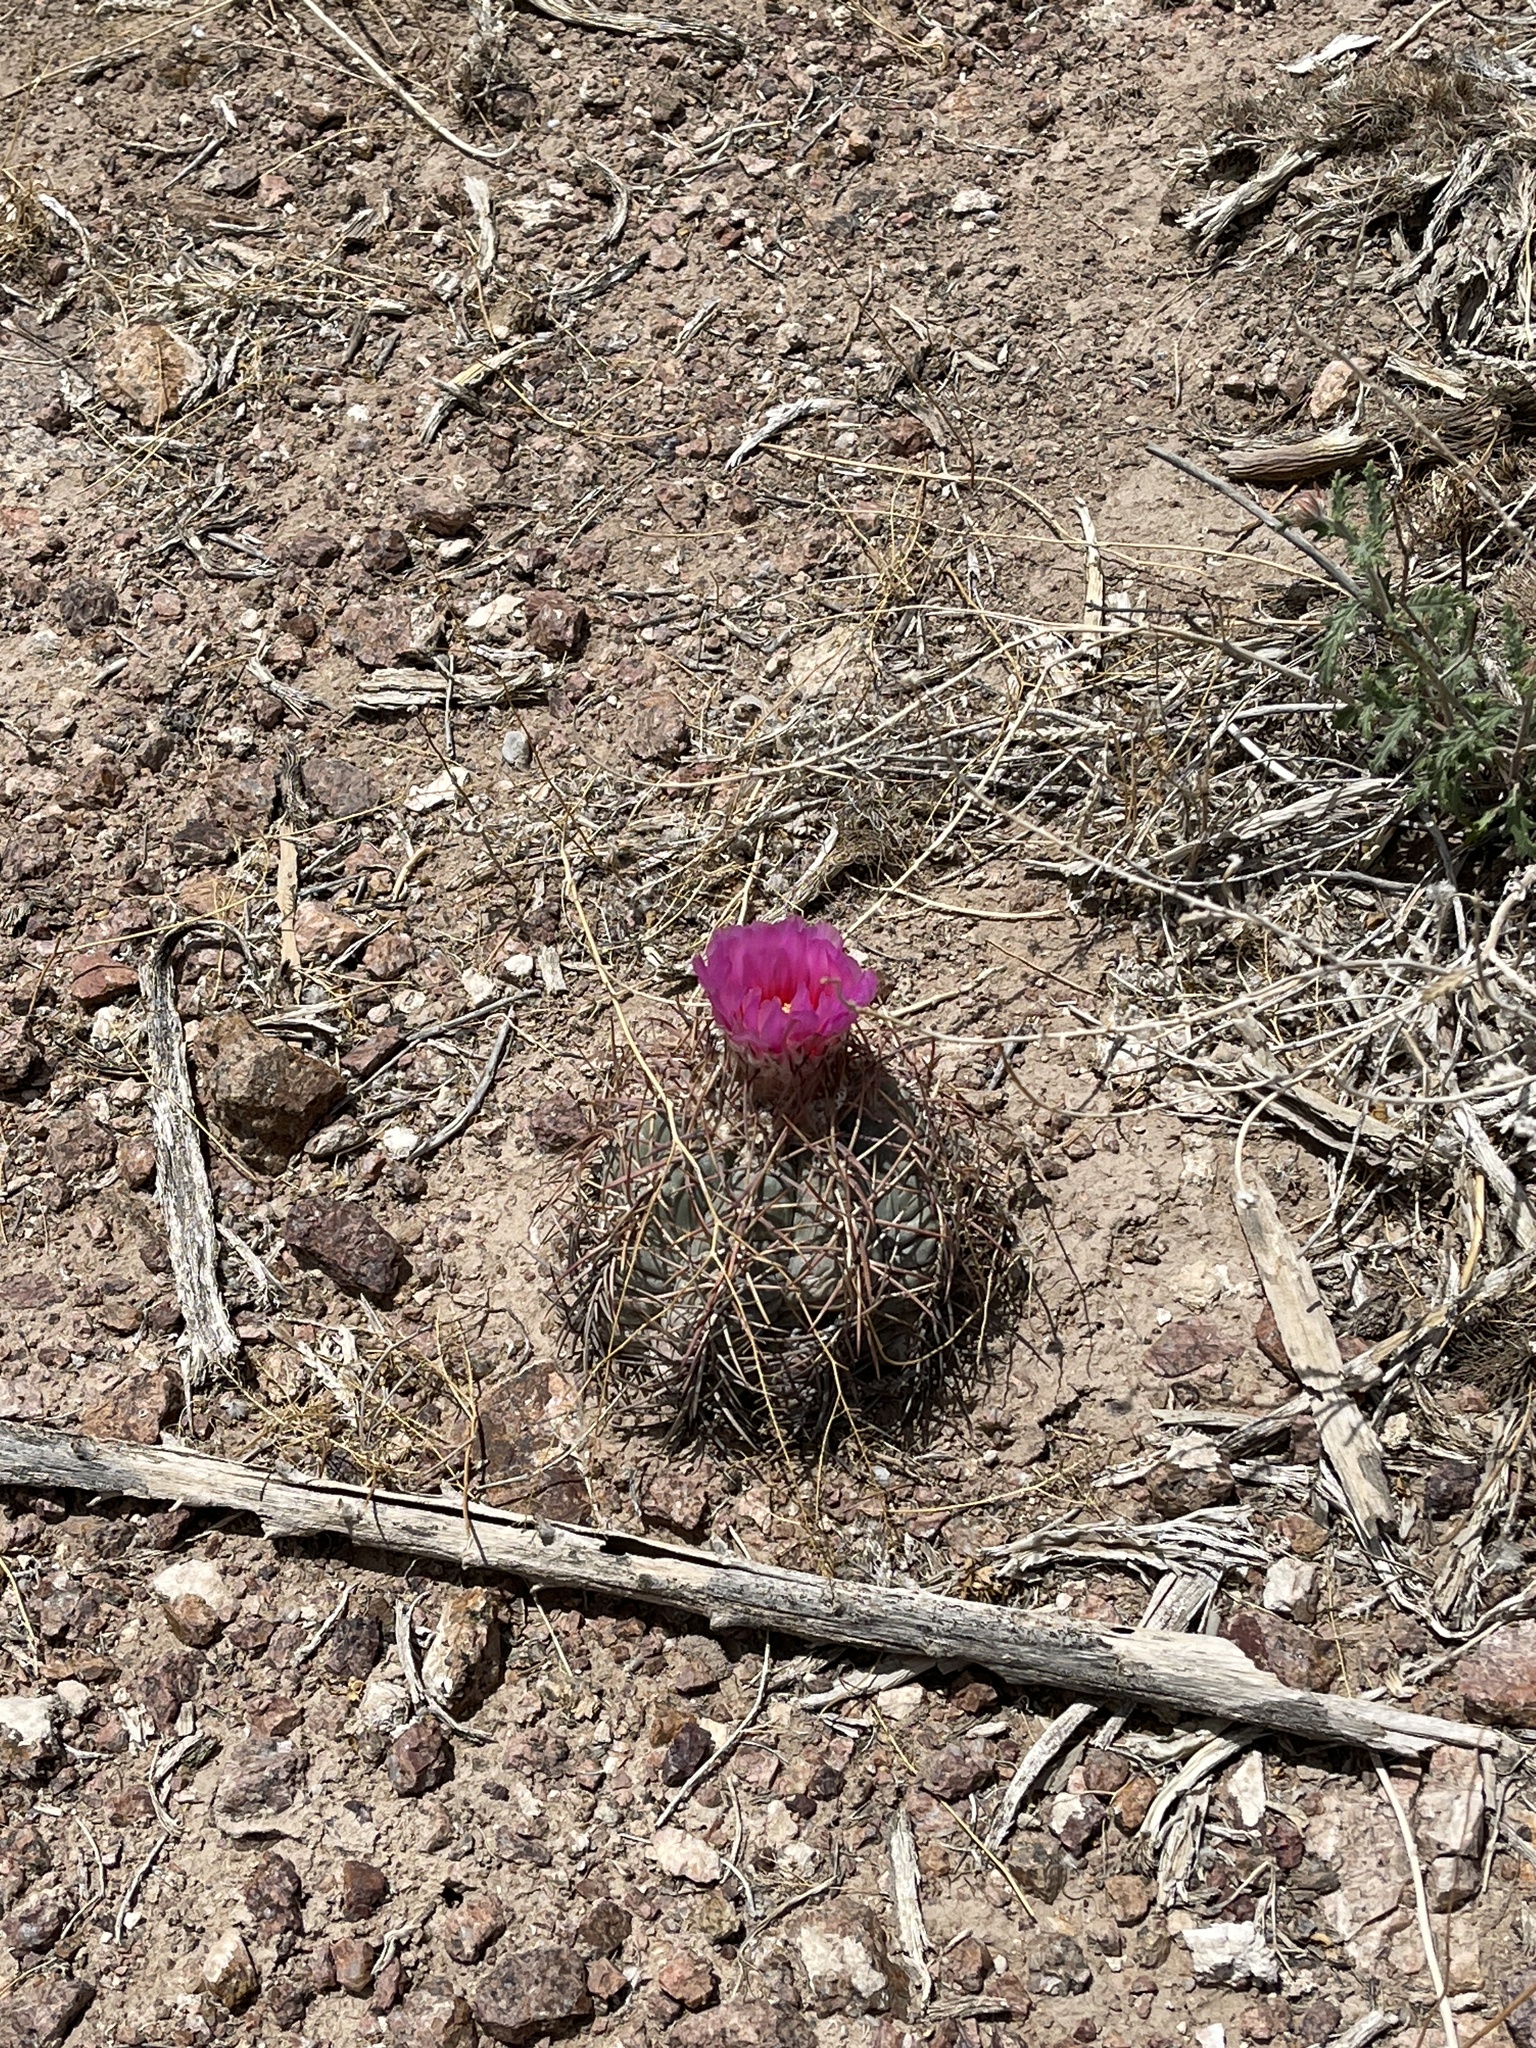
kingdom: Plantae
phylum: Tracheophyta
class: Magnoliopsida
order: Caryophyllales
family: Cactaceae
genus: Echinocactus
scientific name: Echinocactus horizonthalonius
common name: Devilshead
